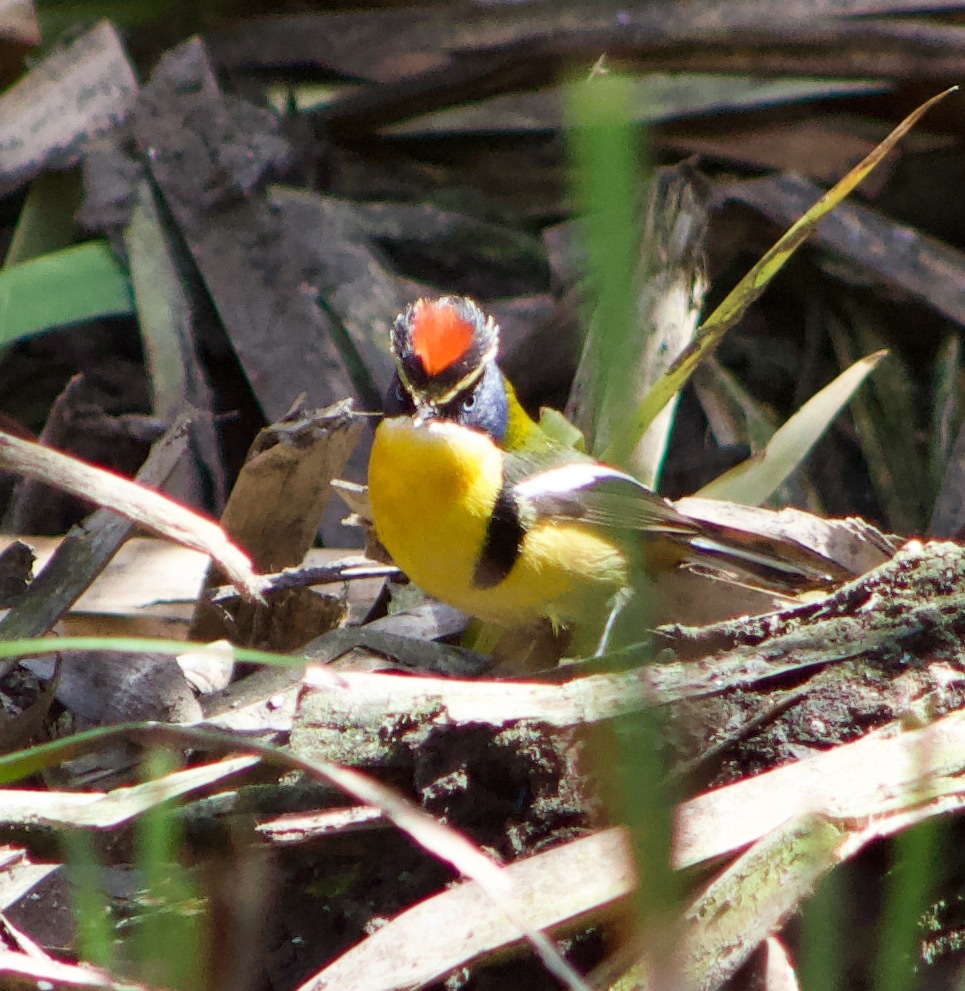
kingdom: Animalia
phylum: Chordata
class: Aves
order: Passeriformes
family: Tyrannidae
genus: Tachuris
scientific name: Tachuris rubrigastra
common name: Many-colored rush tyrant
